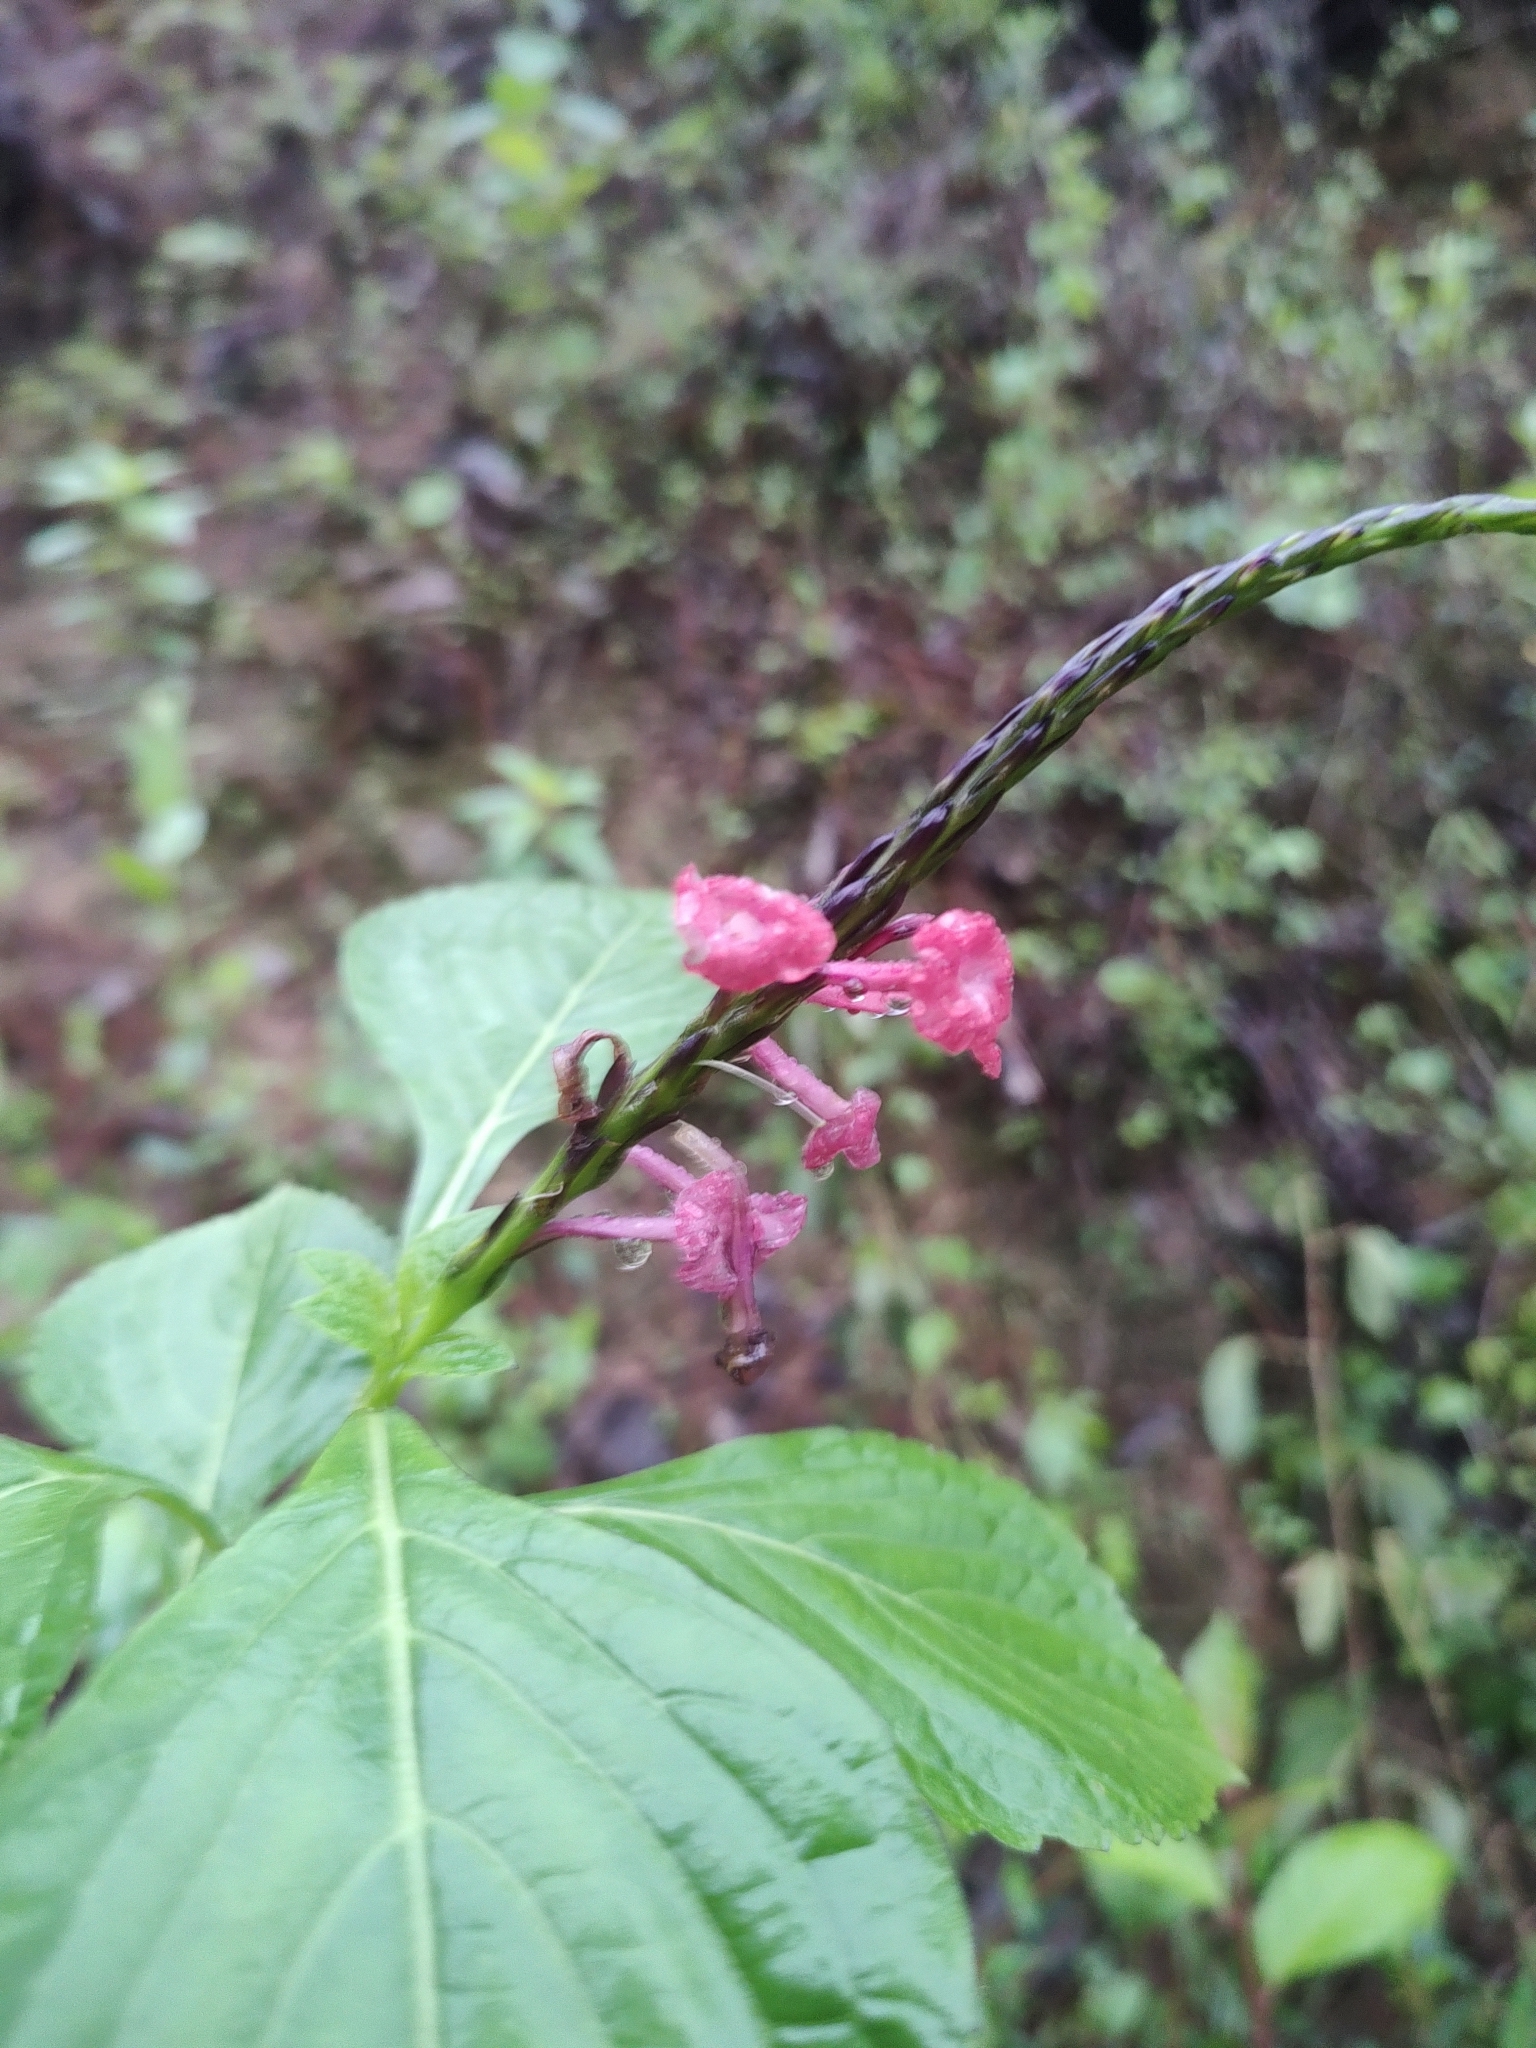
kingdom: Plantae
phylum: Tracheophyta
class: Magnoliopsida
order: Lamiales
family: Verbenaceae
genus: Stachytarpheta
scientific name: Stachytarpheta rivularis
